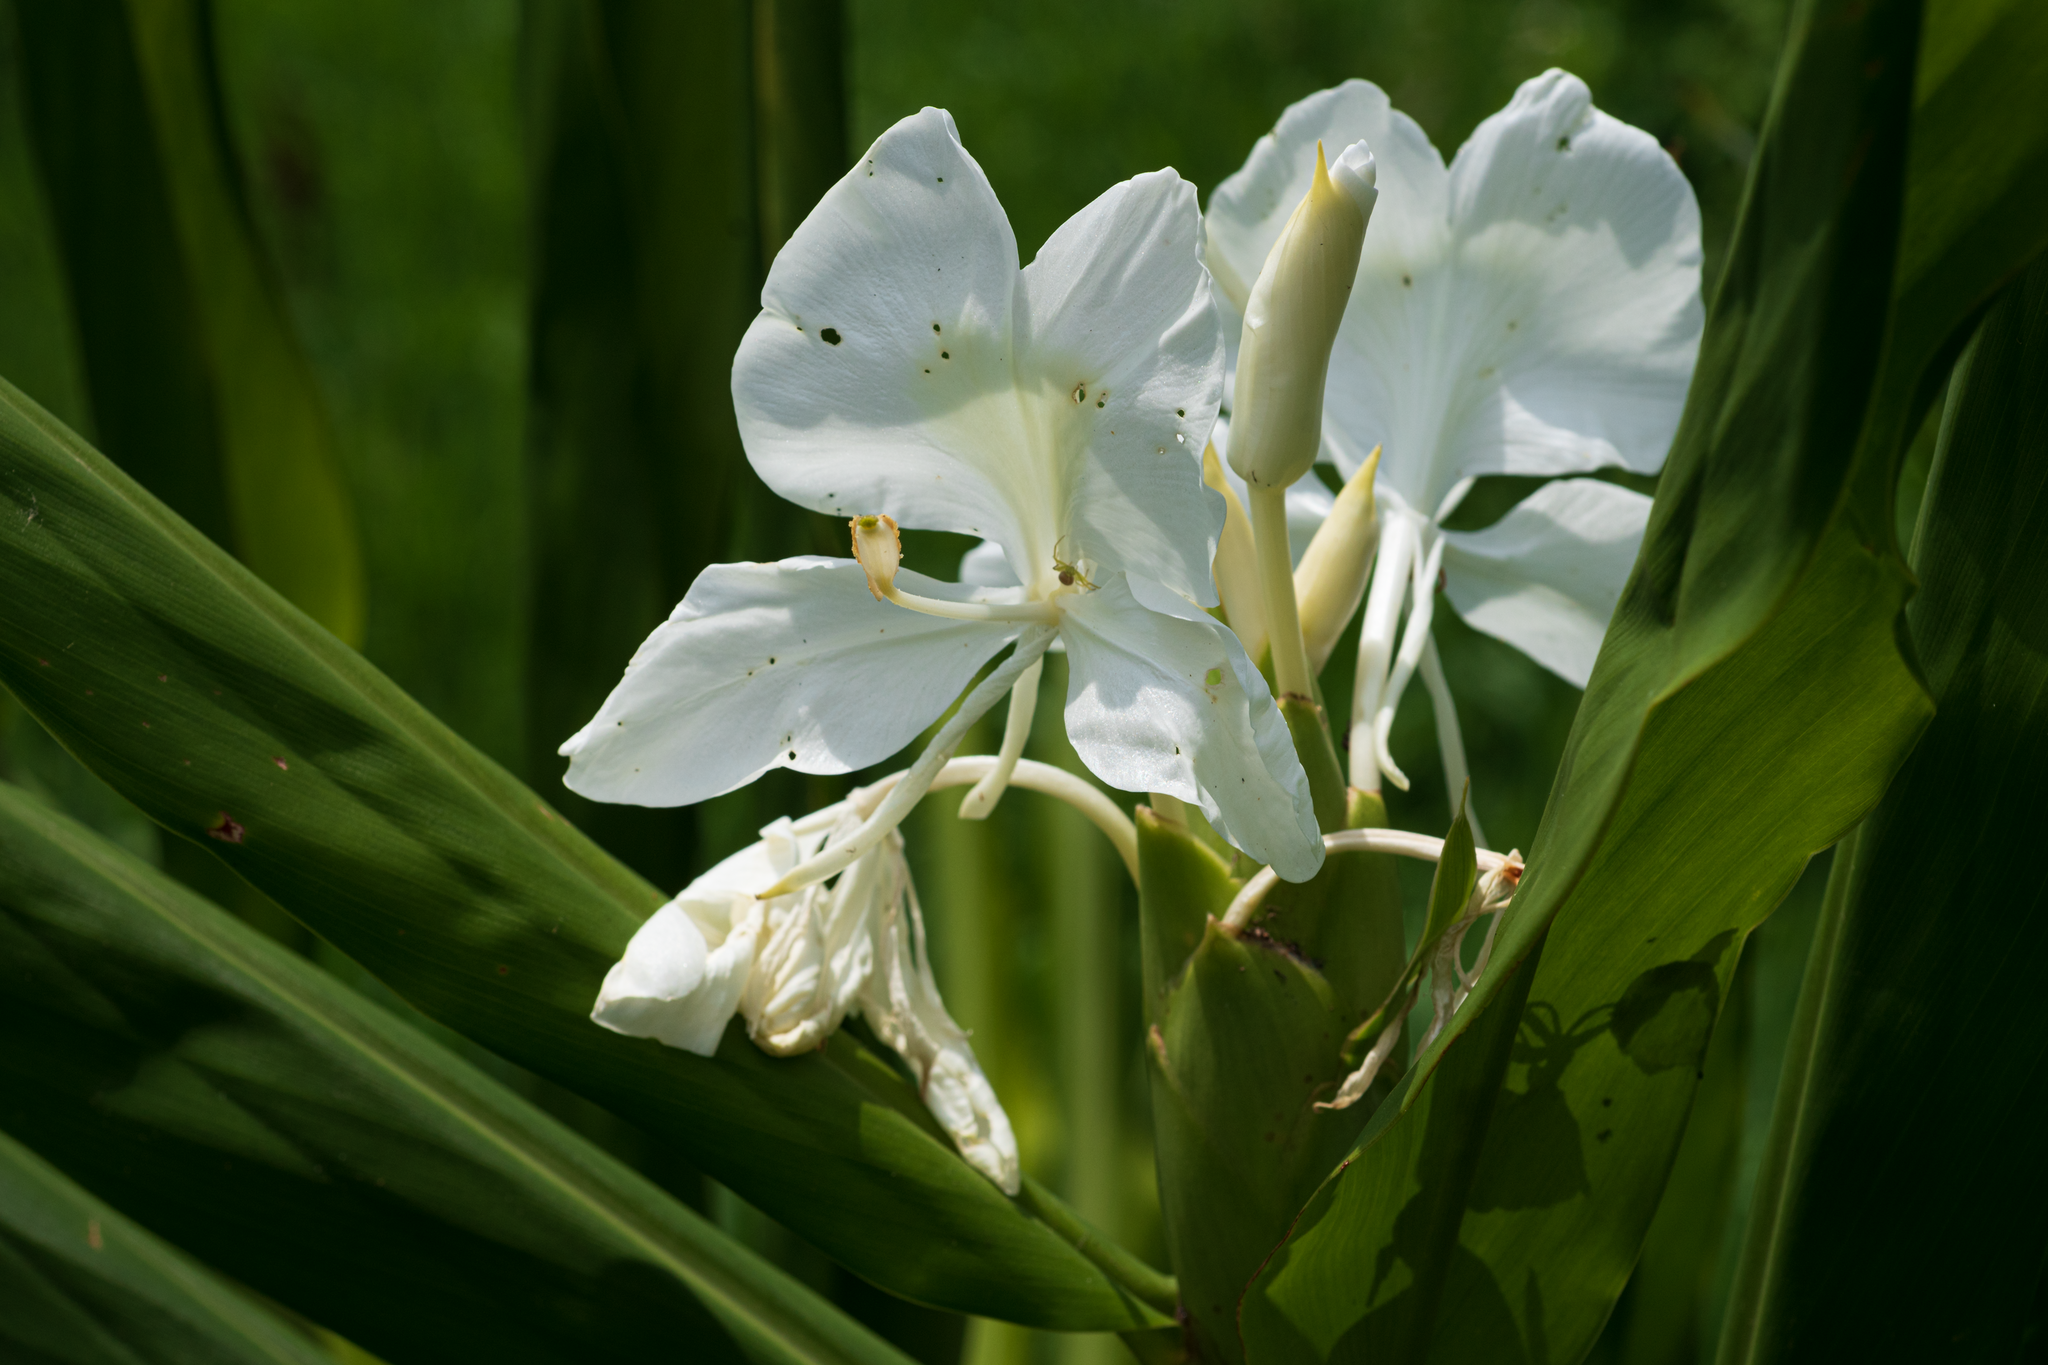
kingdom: Plantae
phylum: Tracheophyta
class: Liliopsida
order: Zingiberales
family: Zingiberaceae
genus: Hedychium
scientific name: Hedychium coronarium
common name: White garland-lily
